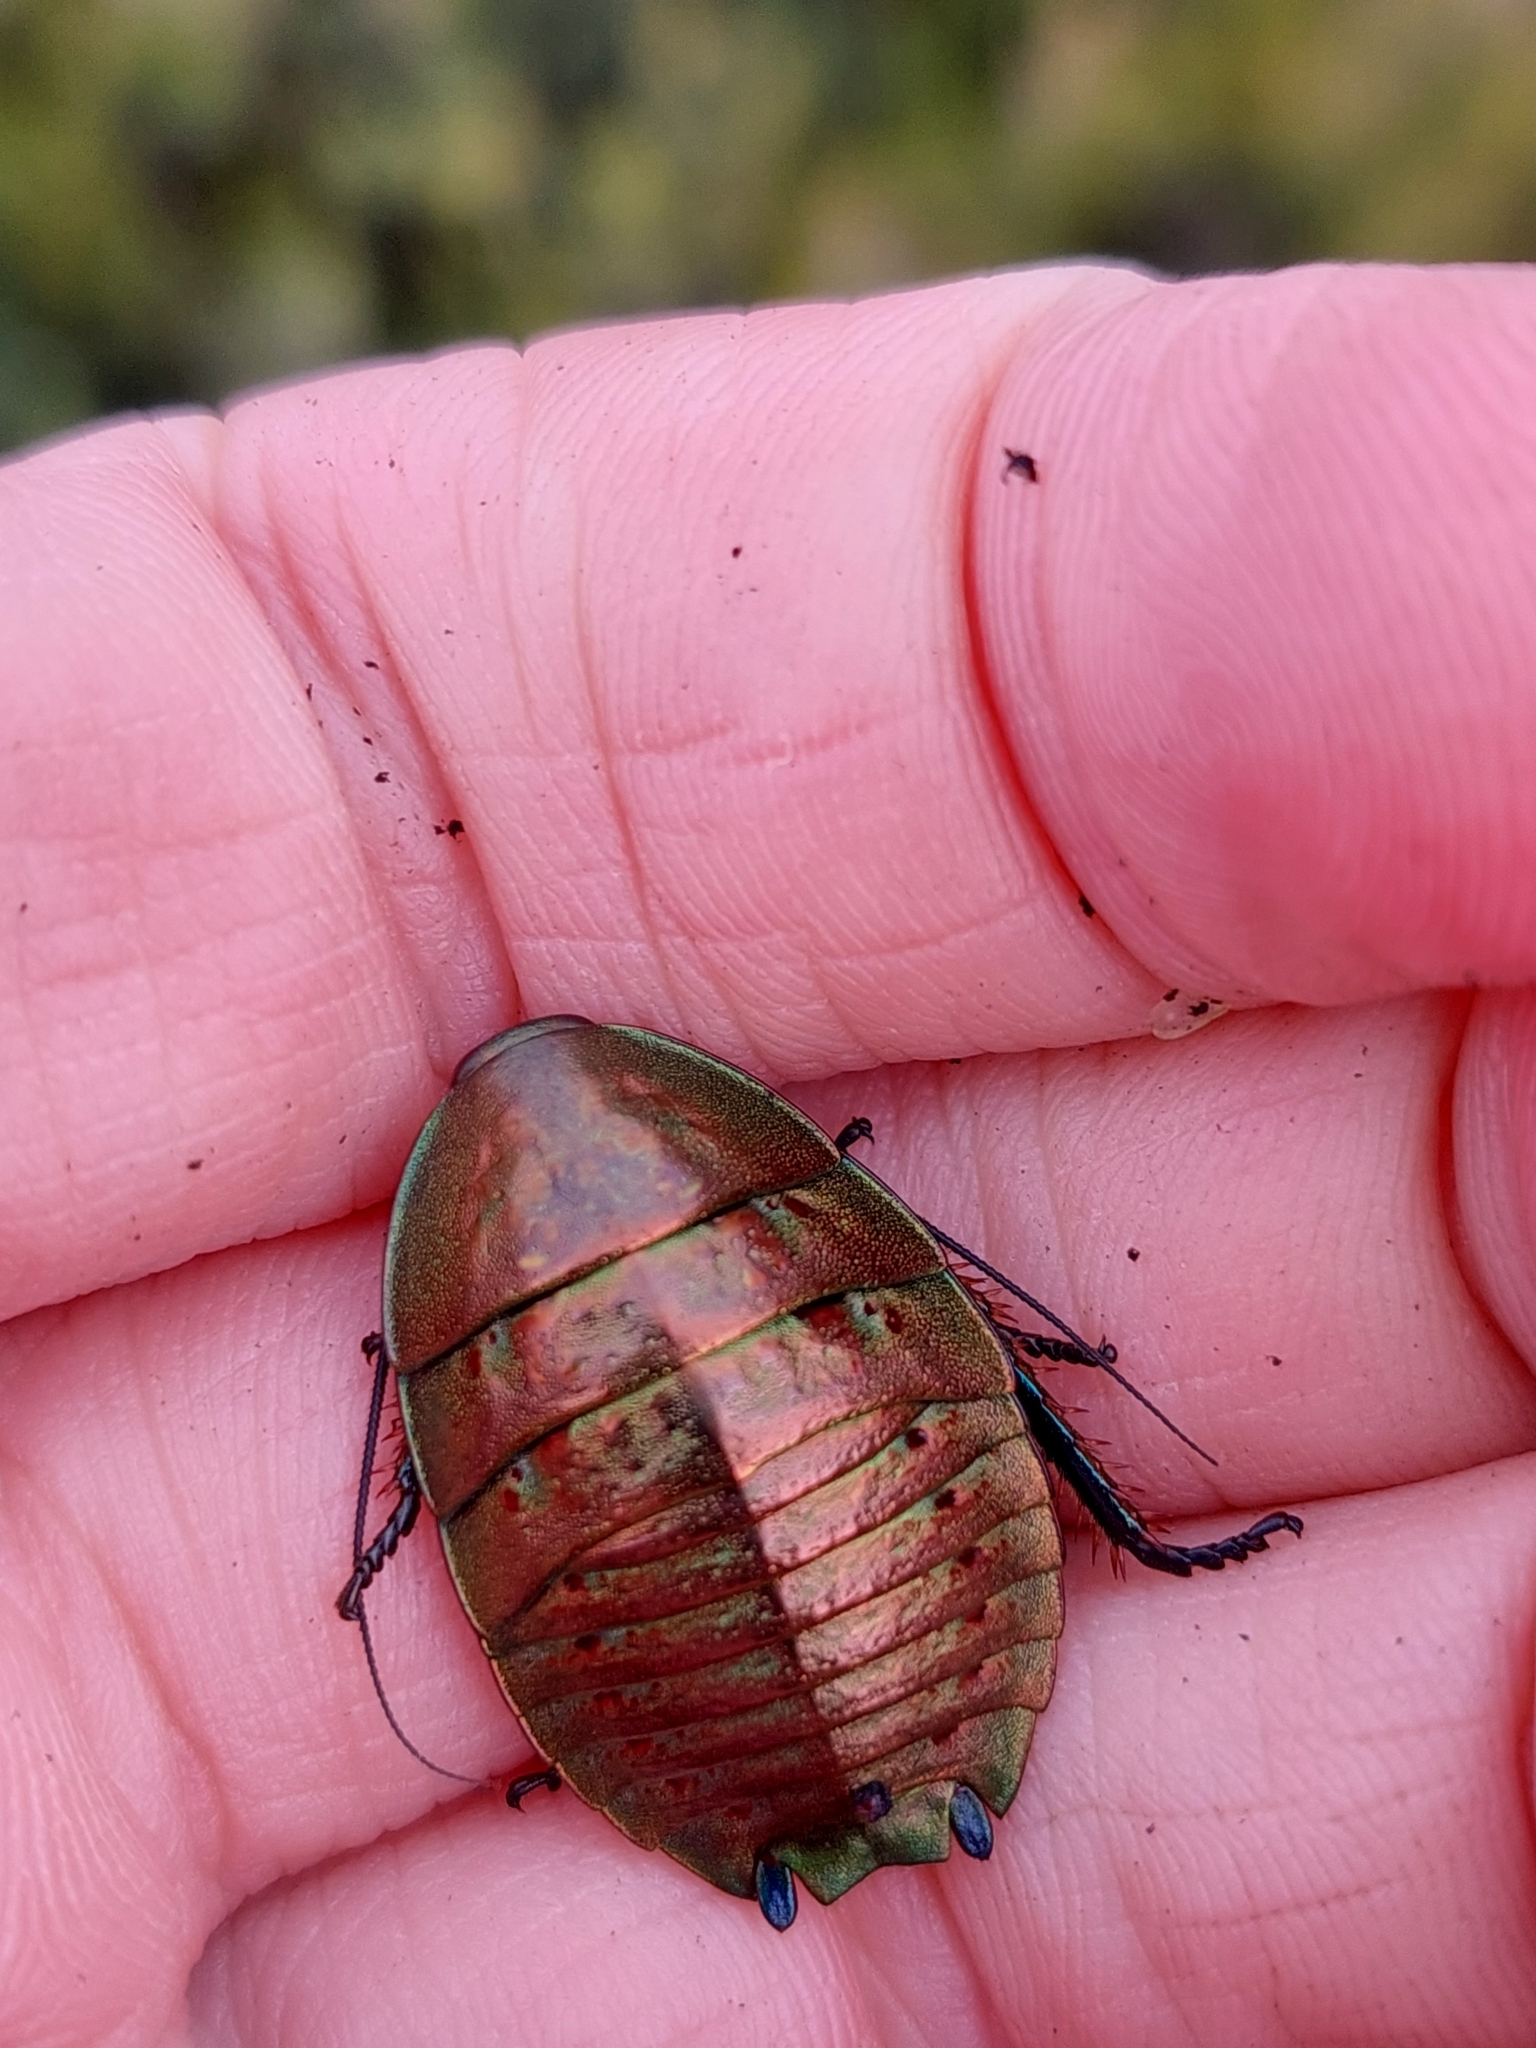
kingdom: Animalia
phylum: Arthropoda
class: Insecta
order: Blattodea
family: Blattidae
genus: Polyzosteria
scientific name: Polyzosteria metallica
